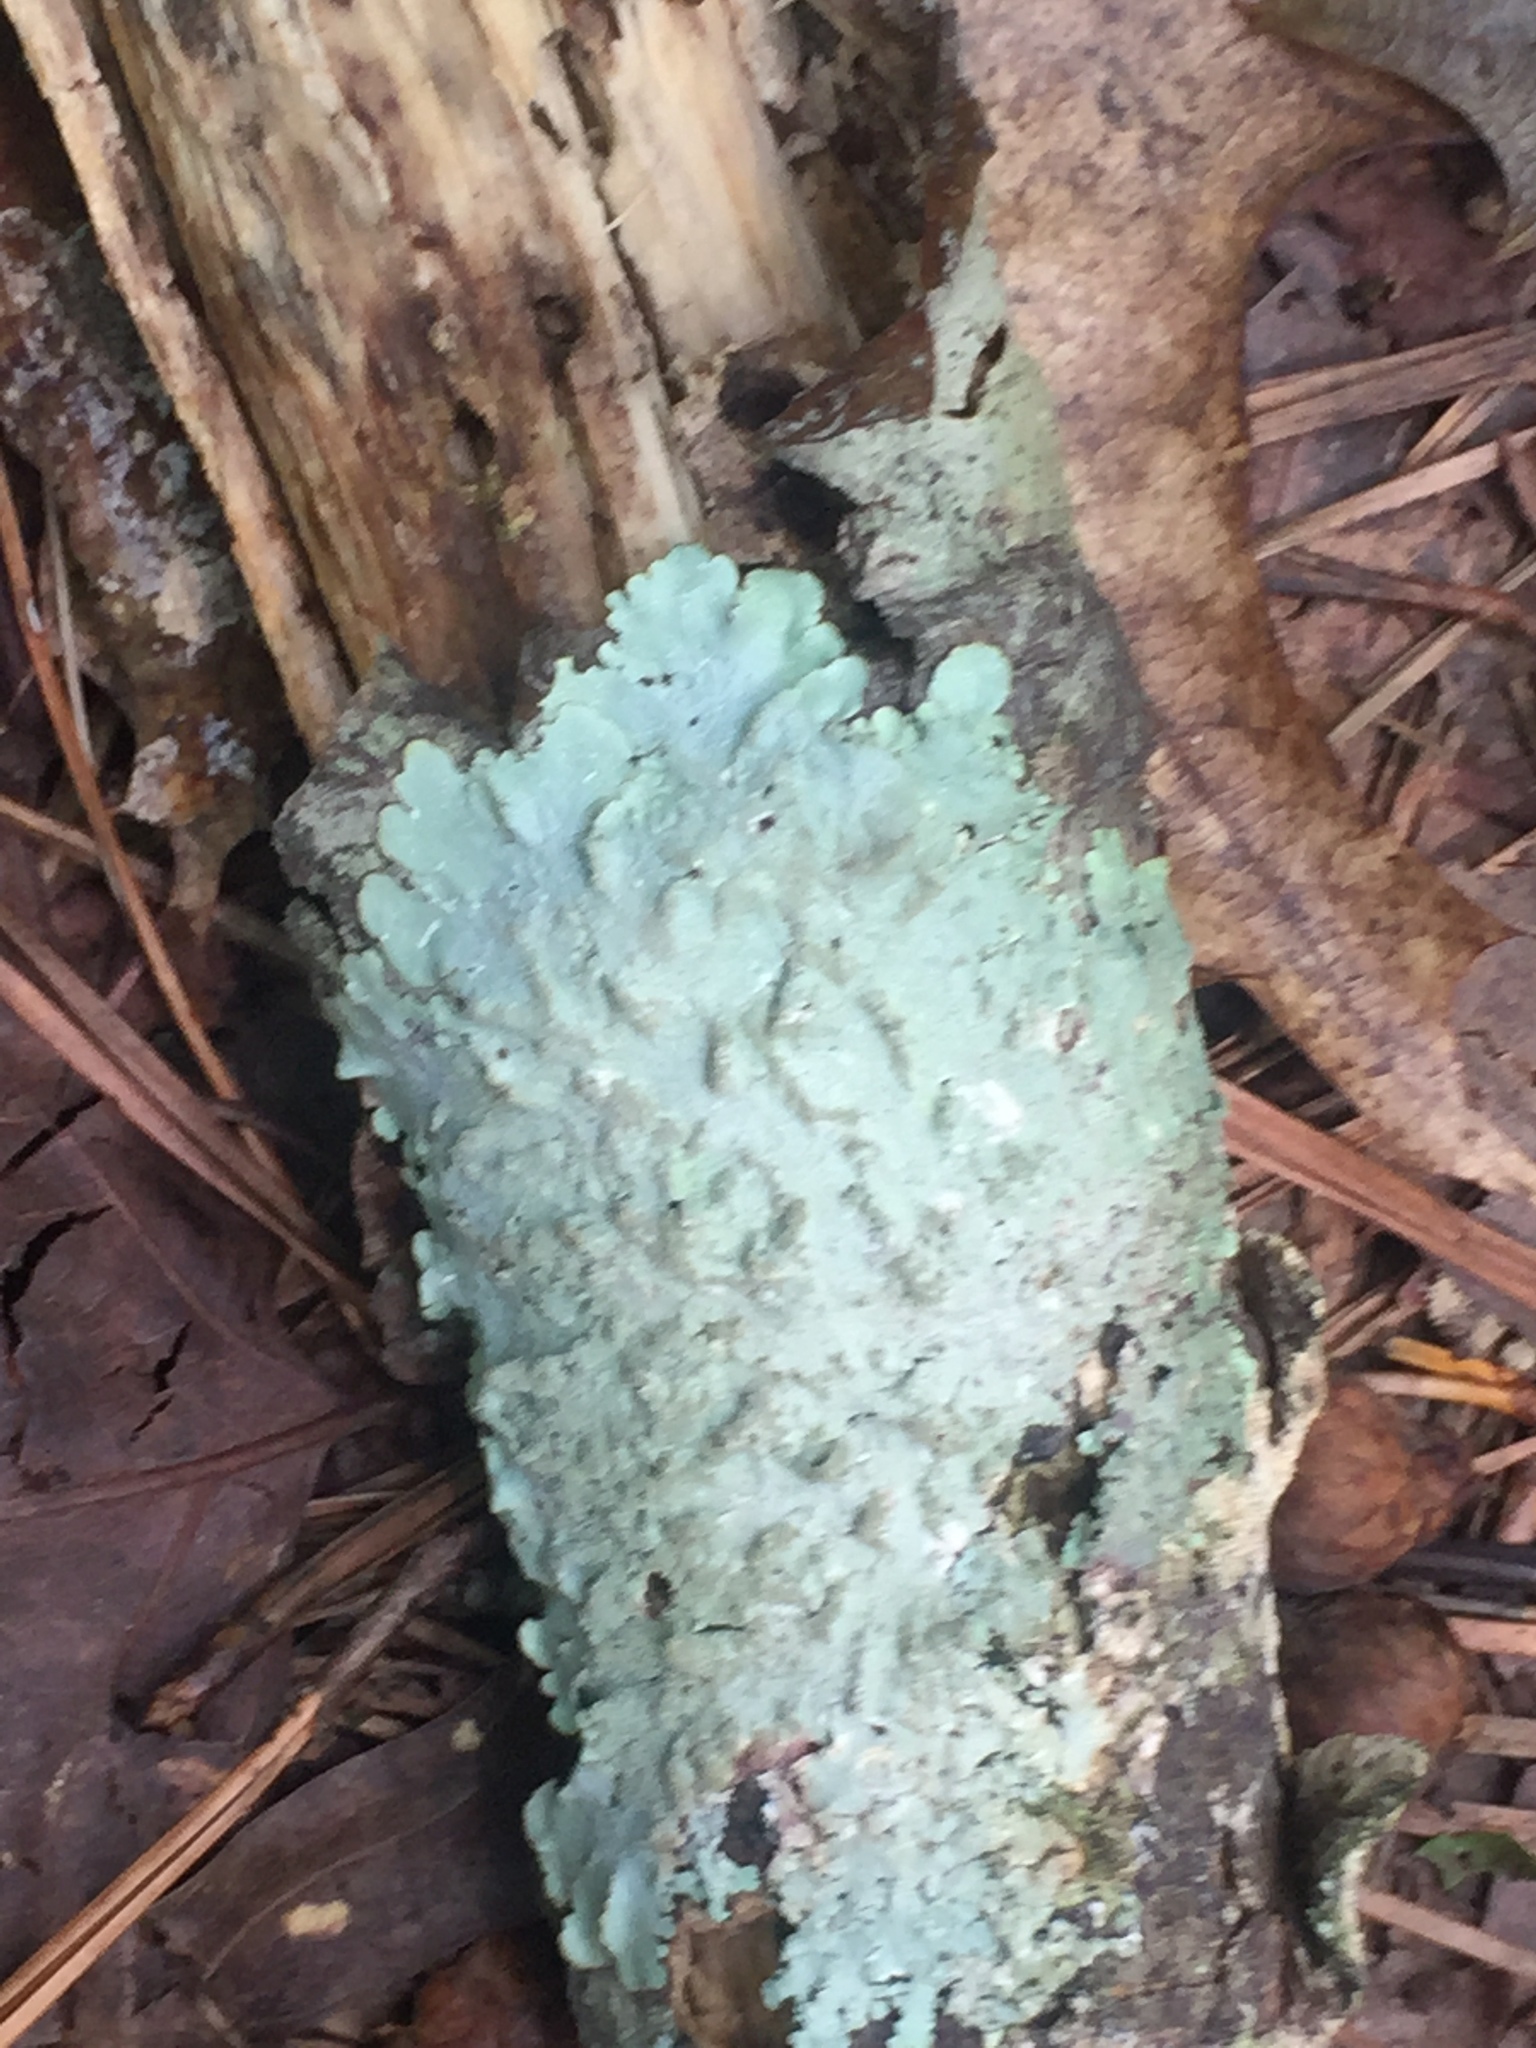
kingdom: Fungi
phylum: Ascomycota
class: Lecanoromycetes
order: Caliciales
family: Physciaceae
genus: Physcia
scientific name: Physcia aipolia
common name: Hoary rosette lichen
